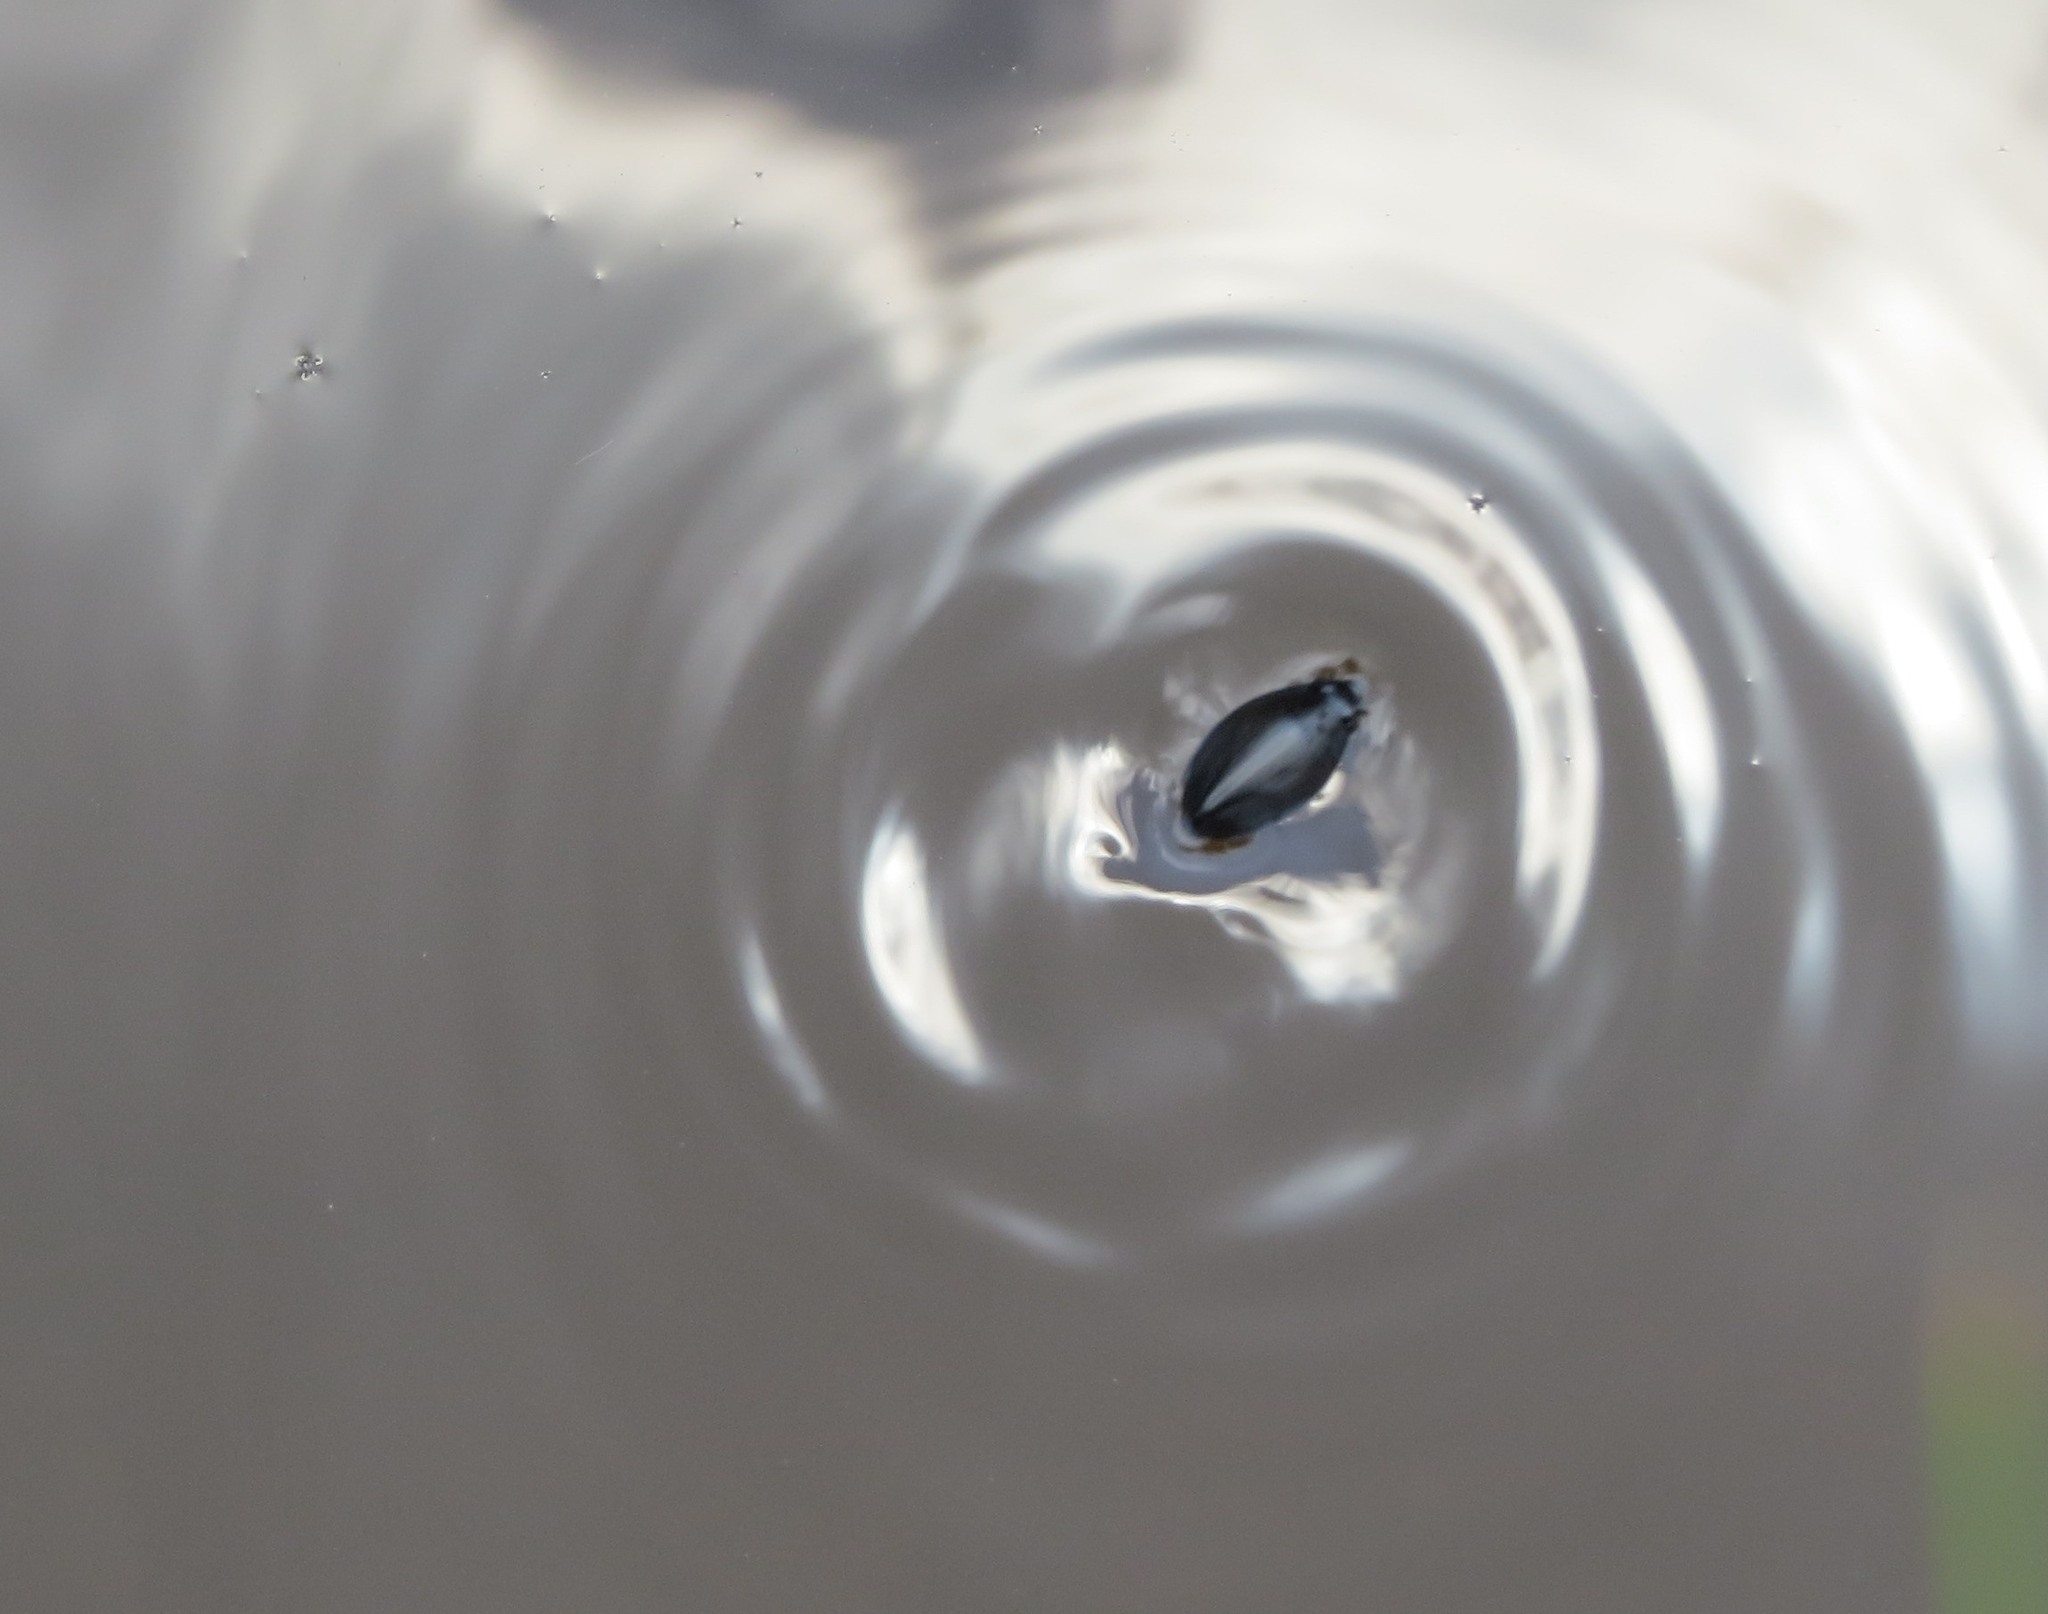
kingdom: Animalia
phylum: Arthropoda
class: Insecta
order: Coleoptera
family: Gyrinidae
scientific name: Gyrinidae
